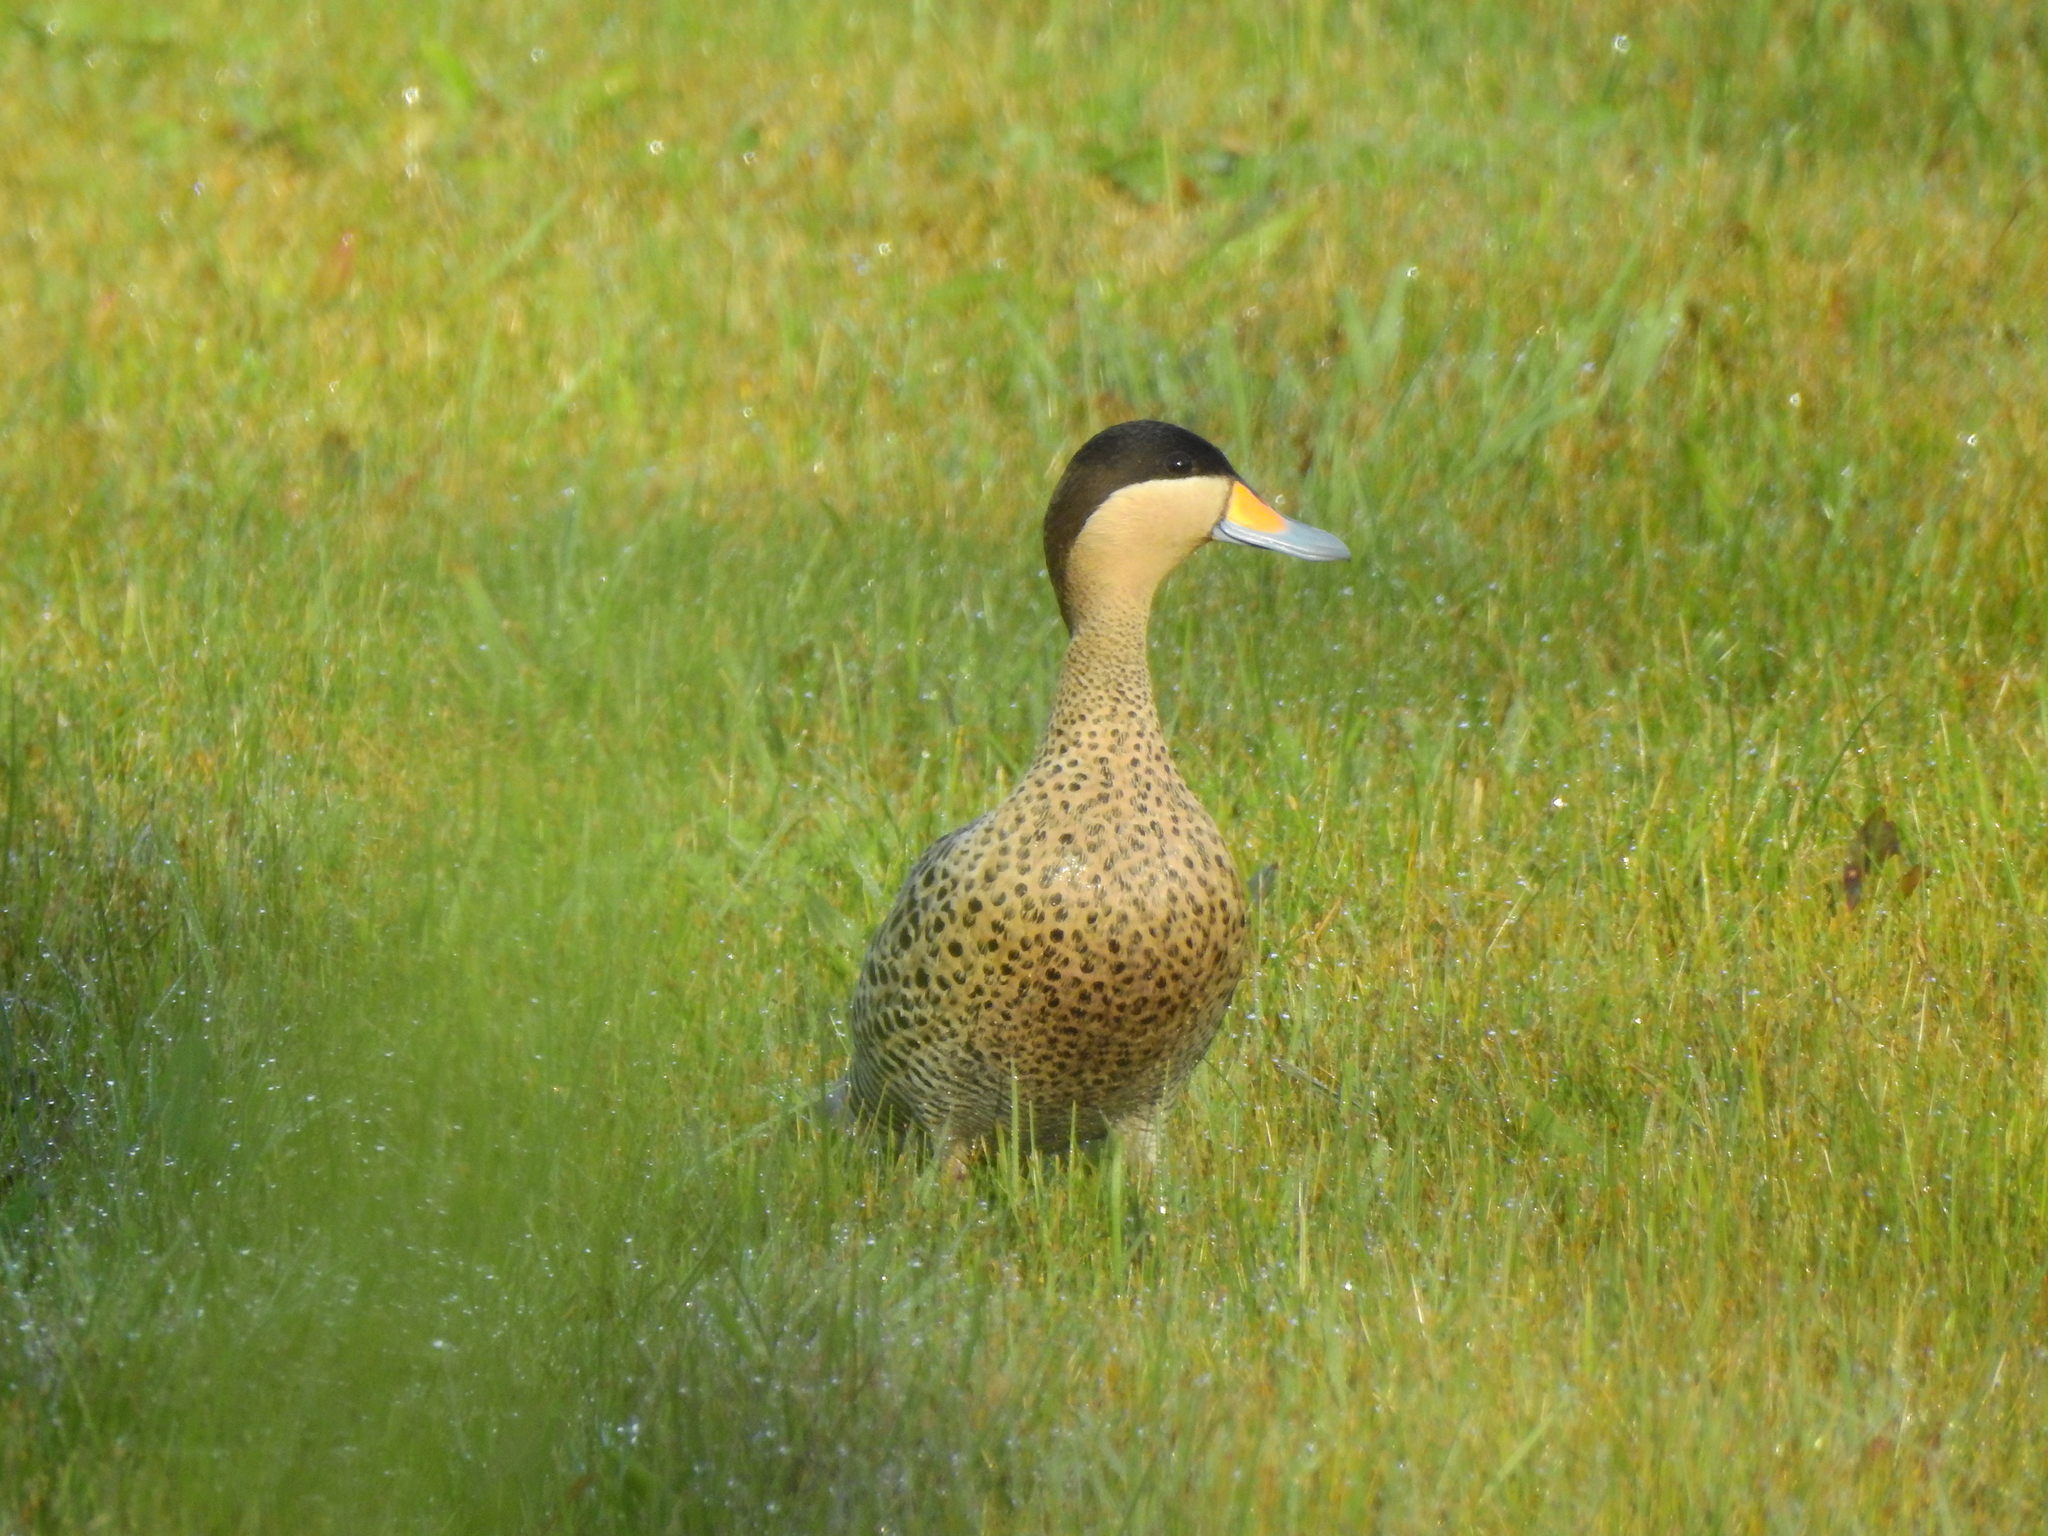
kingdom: Animalia
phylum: Chordata
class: Aves
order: Anseriformes
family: Anatidae
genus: Spatula
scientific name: Spatula versicolor
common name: Silver teal
